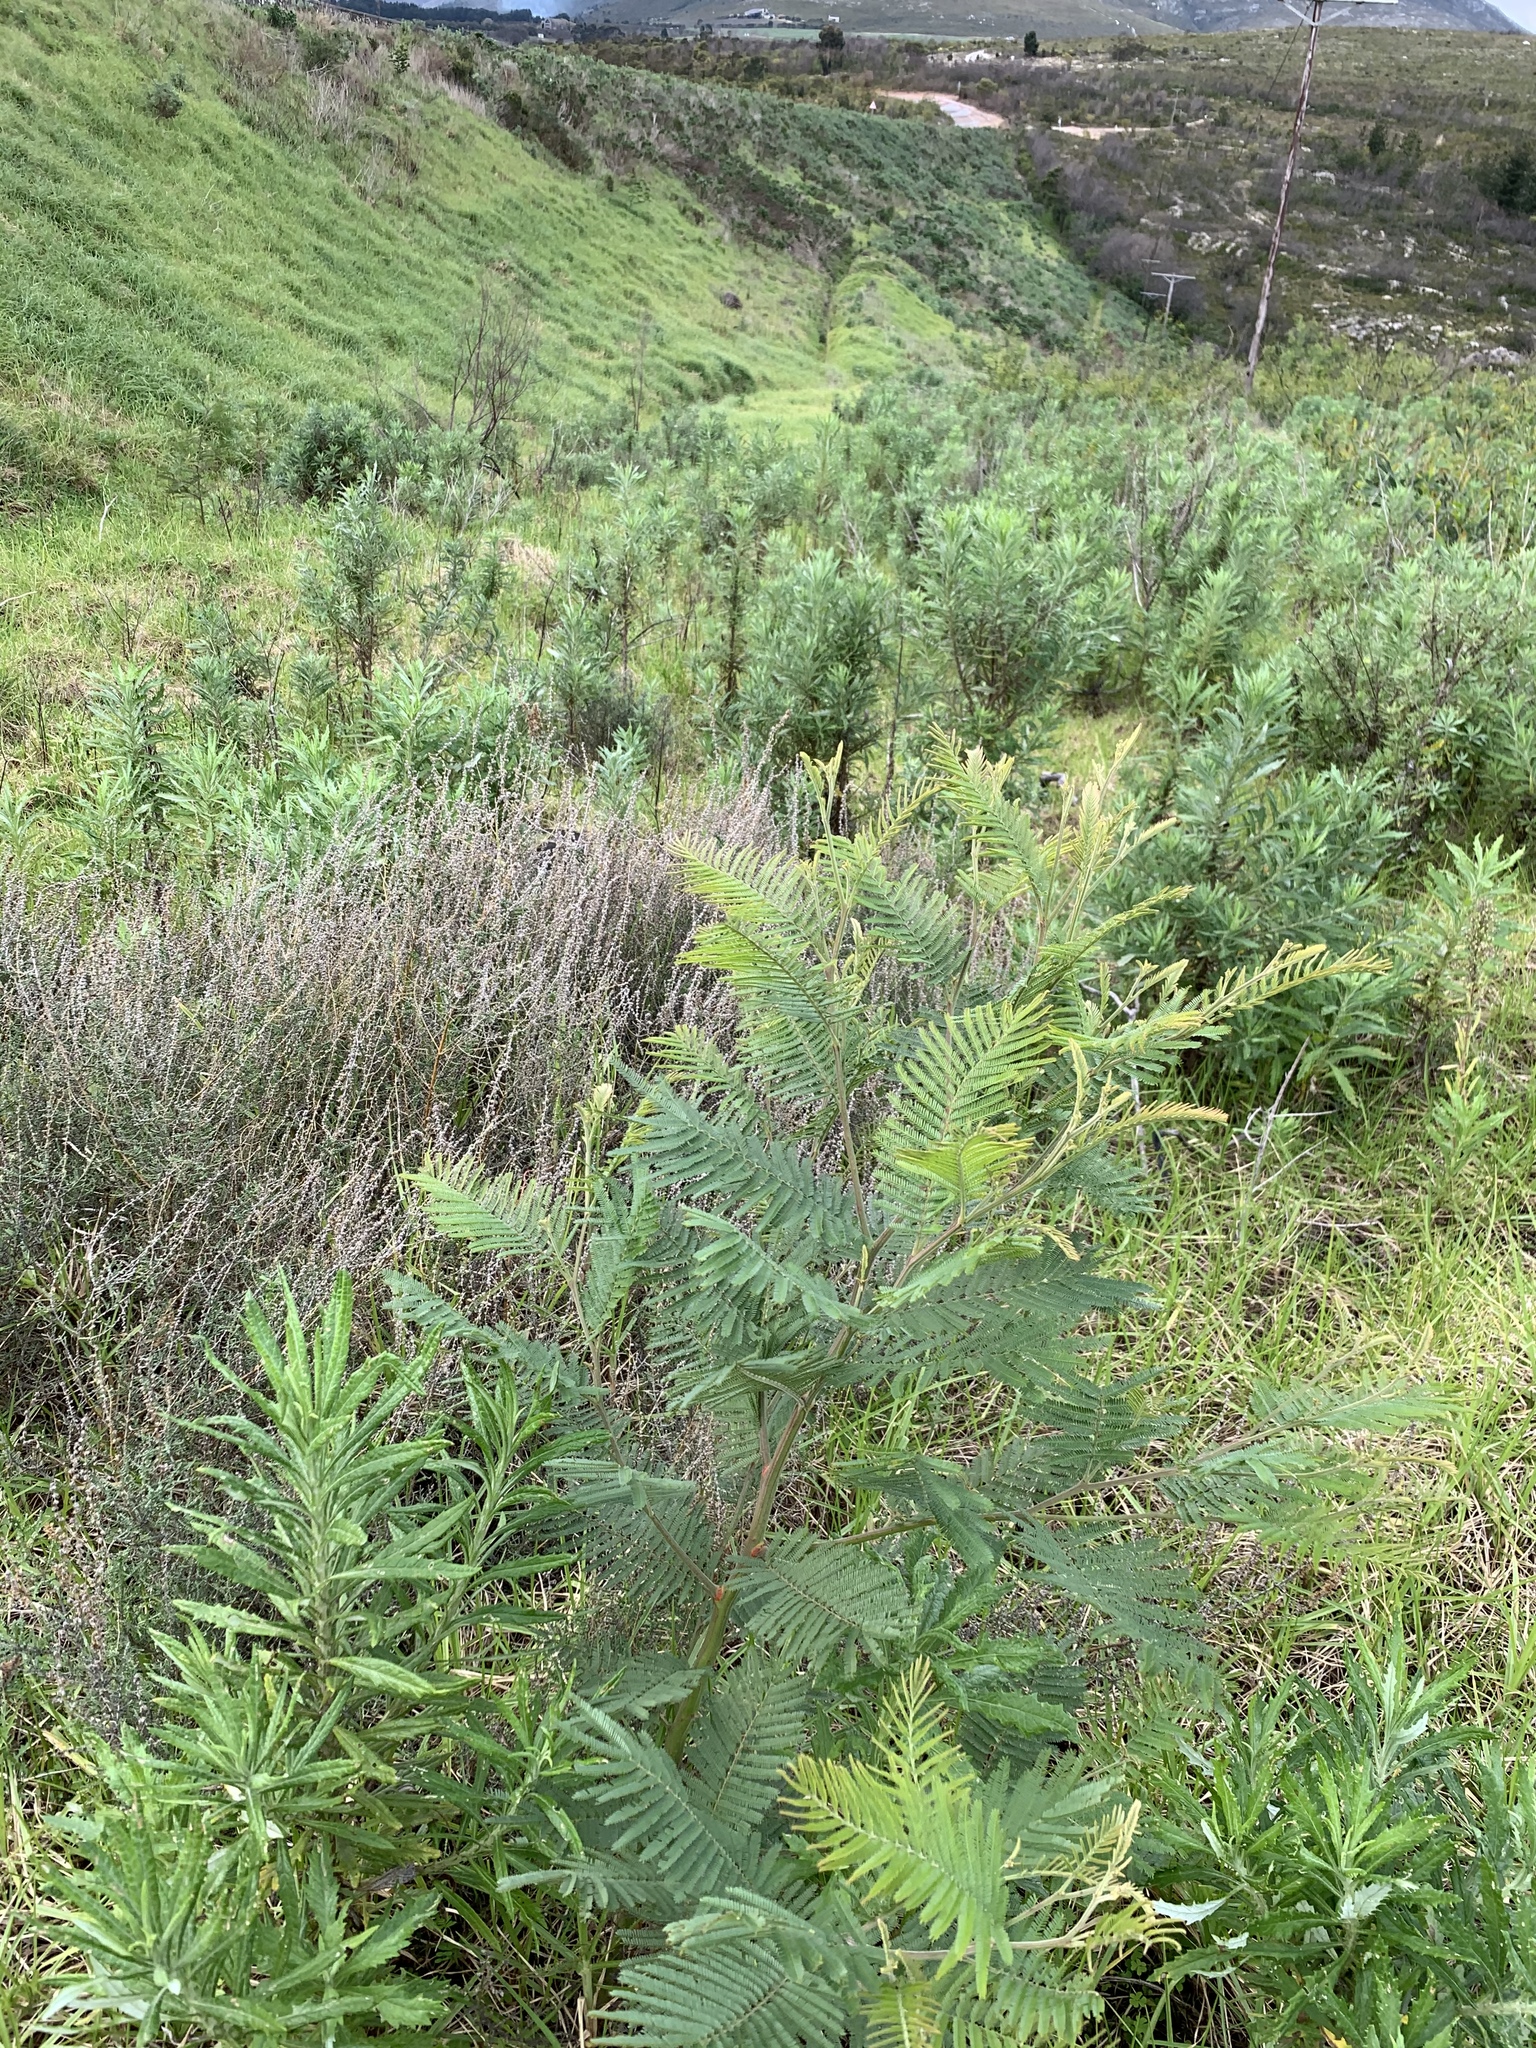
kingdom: Plantae
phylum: Tracheophyta
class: Magnoliopsida
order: Fabales
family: Fabaceae
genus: Acacia
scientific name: Acacia mearnsii
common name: Black wattle
